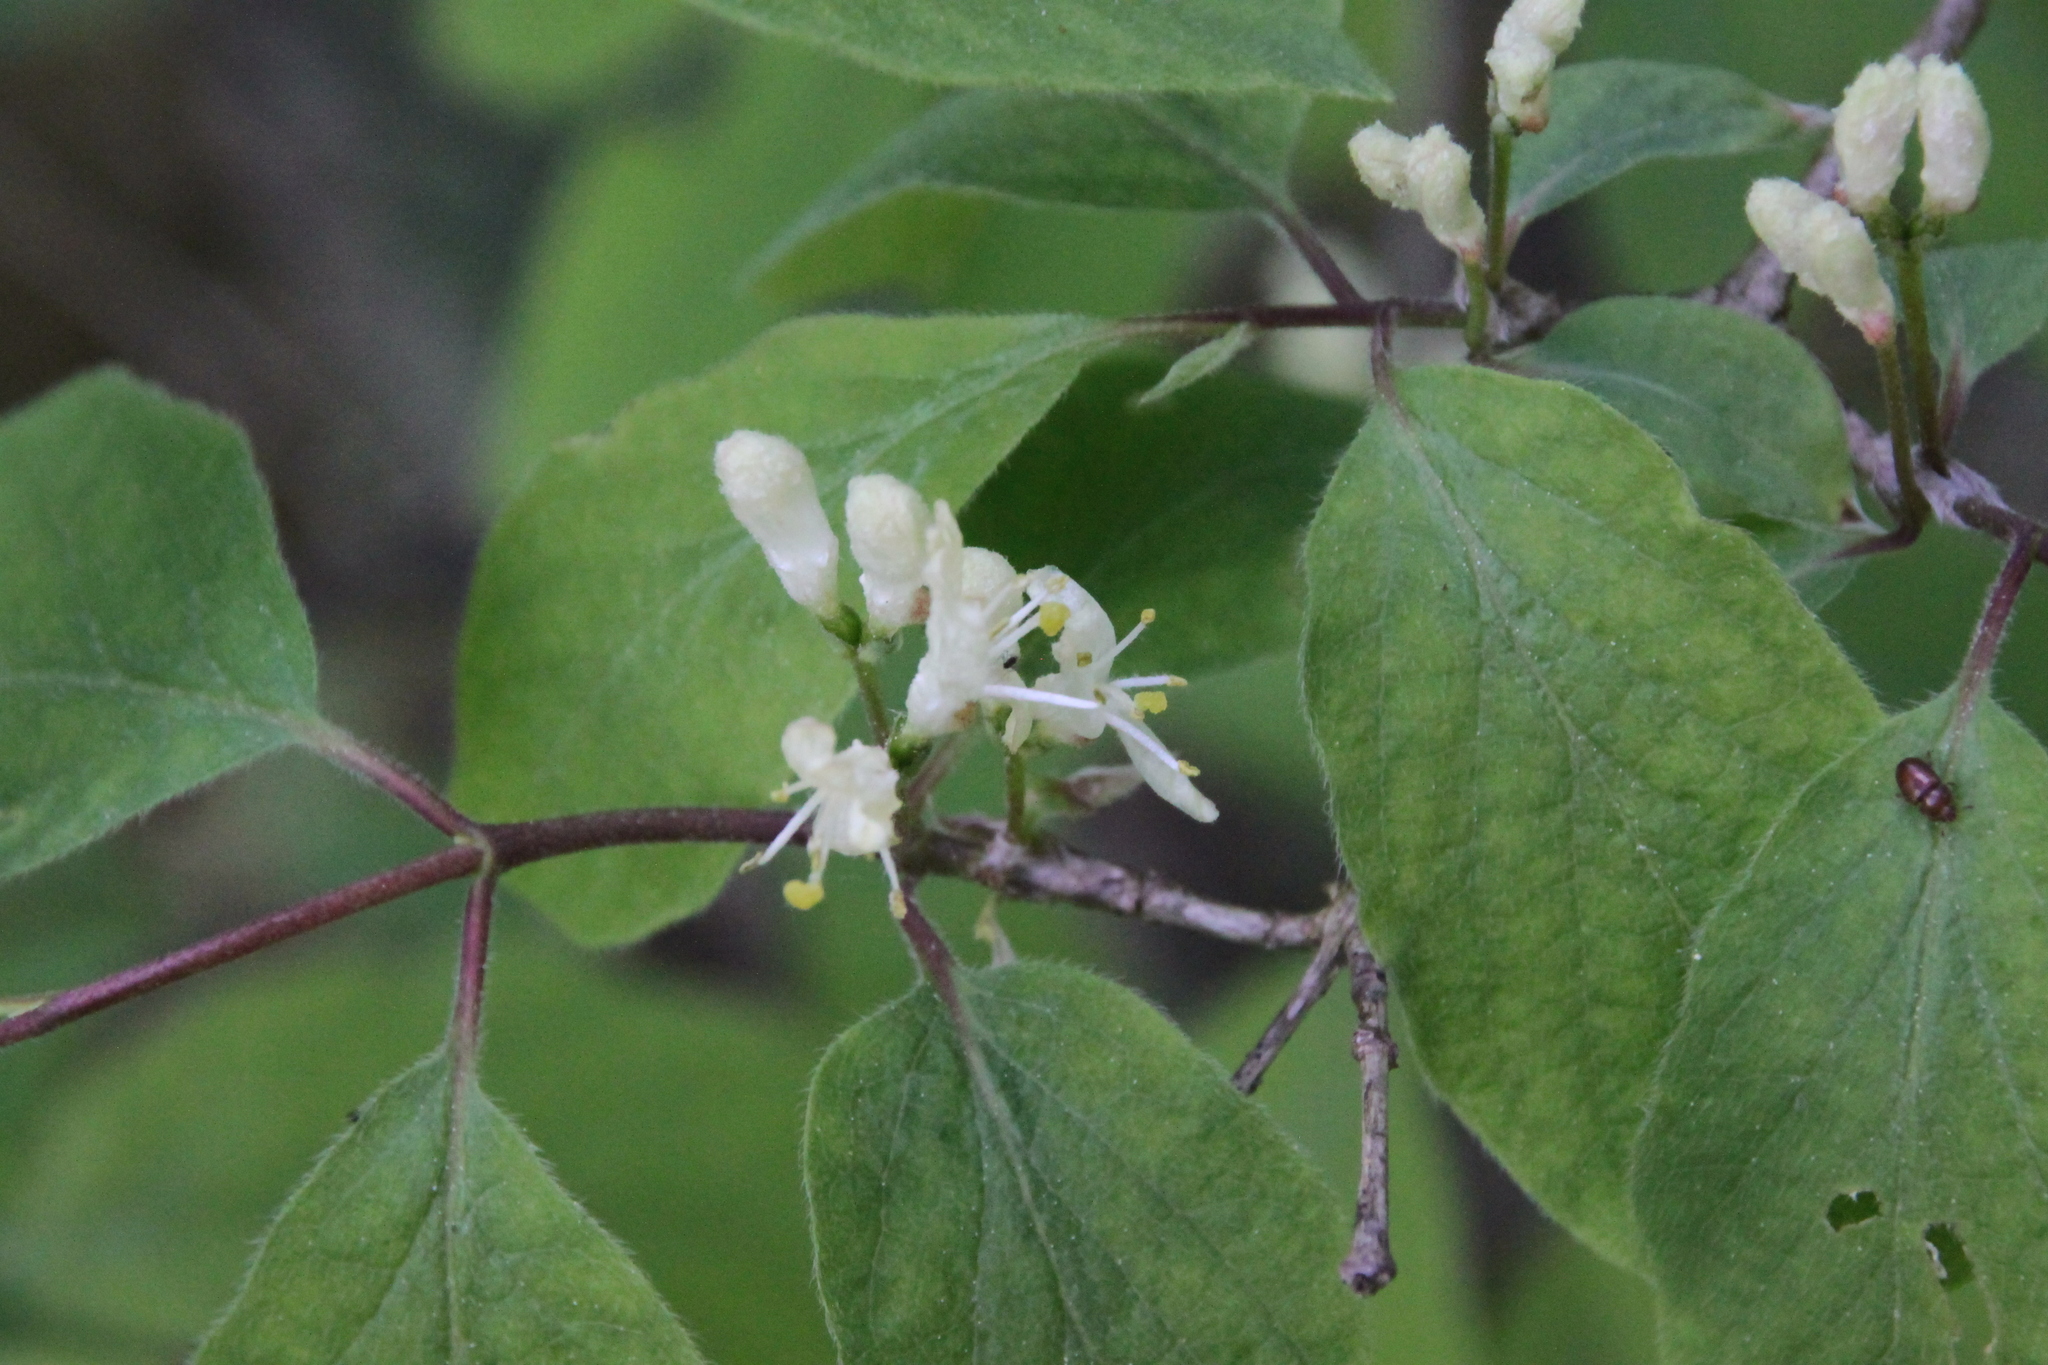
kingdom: Plantae
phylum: Tracheophyta
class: Magnoliopsida
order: Dipsacales
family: Caprifoliaceae
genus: Lonicera
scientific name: Lonicera xylosteum
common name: Fly honeysuckle
